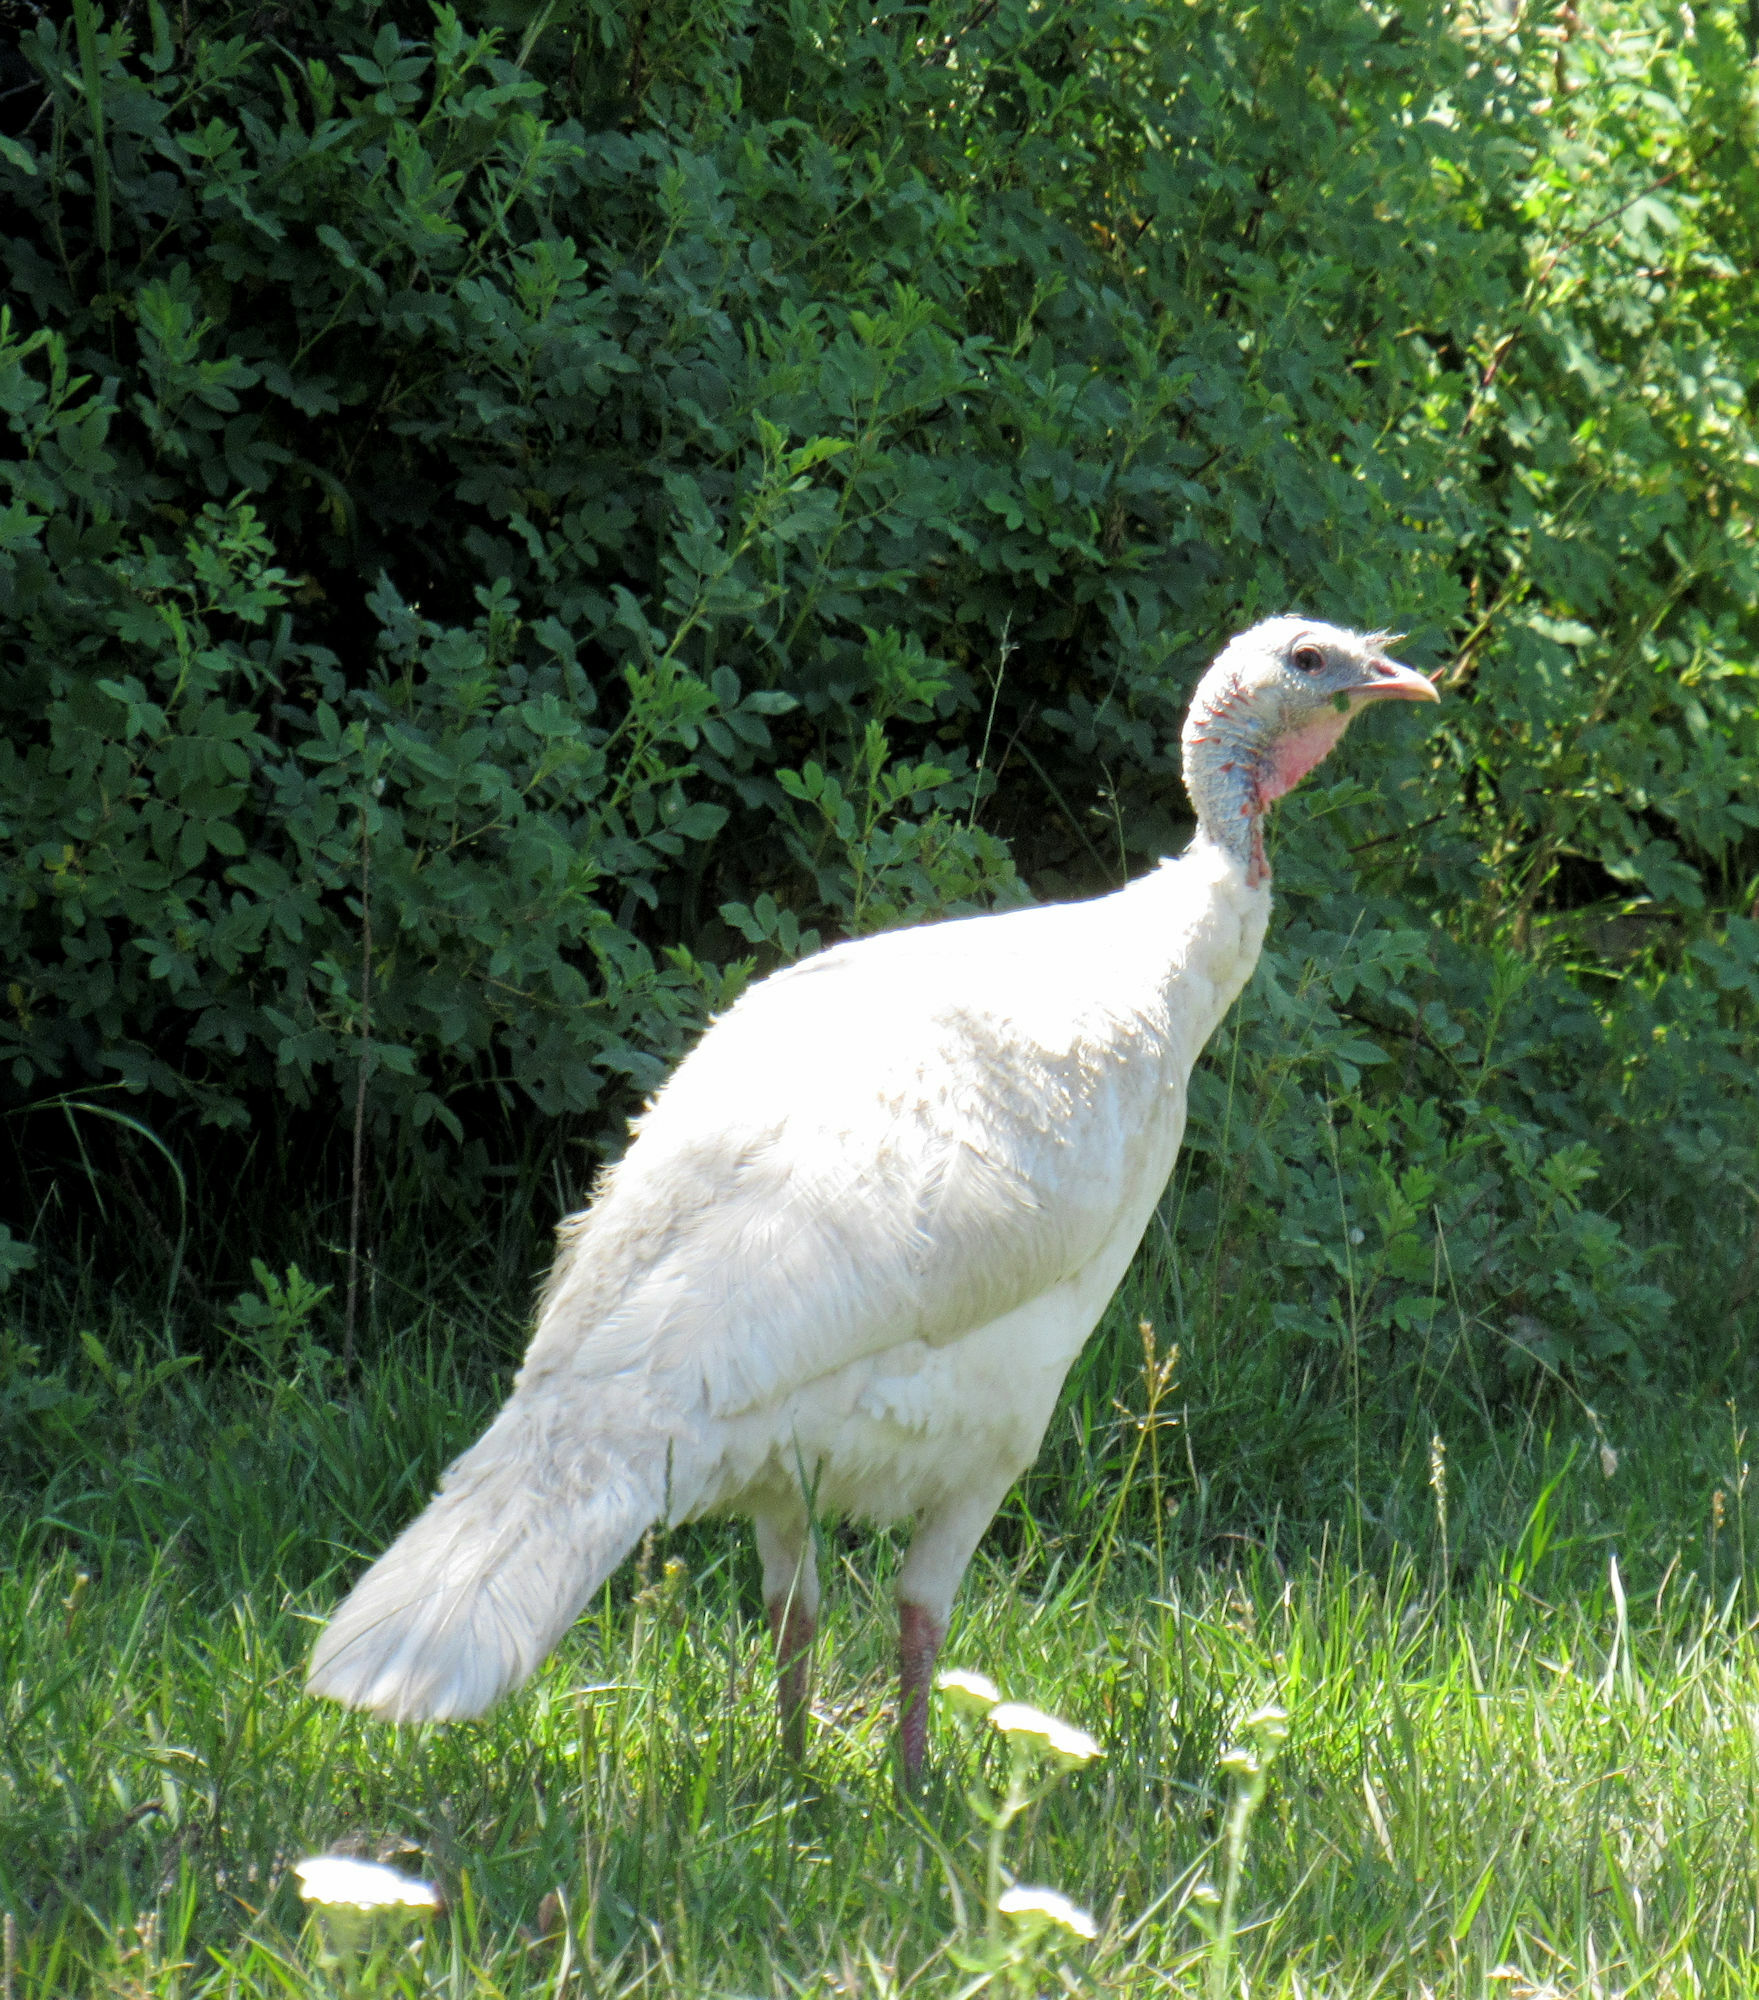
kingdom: Animalia
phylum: Chordata
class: Aves
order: Galliformes
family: Phasianidae
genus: Meleagris
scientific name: Meleagris gallopavo
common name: Wild turkey
